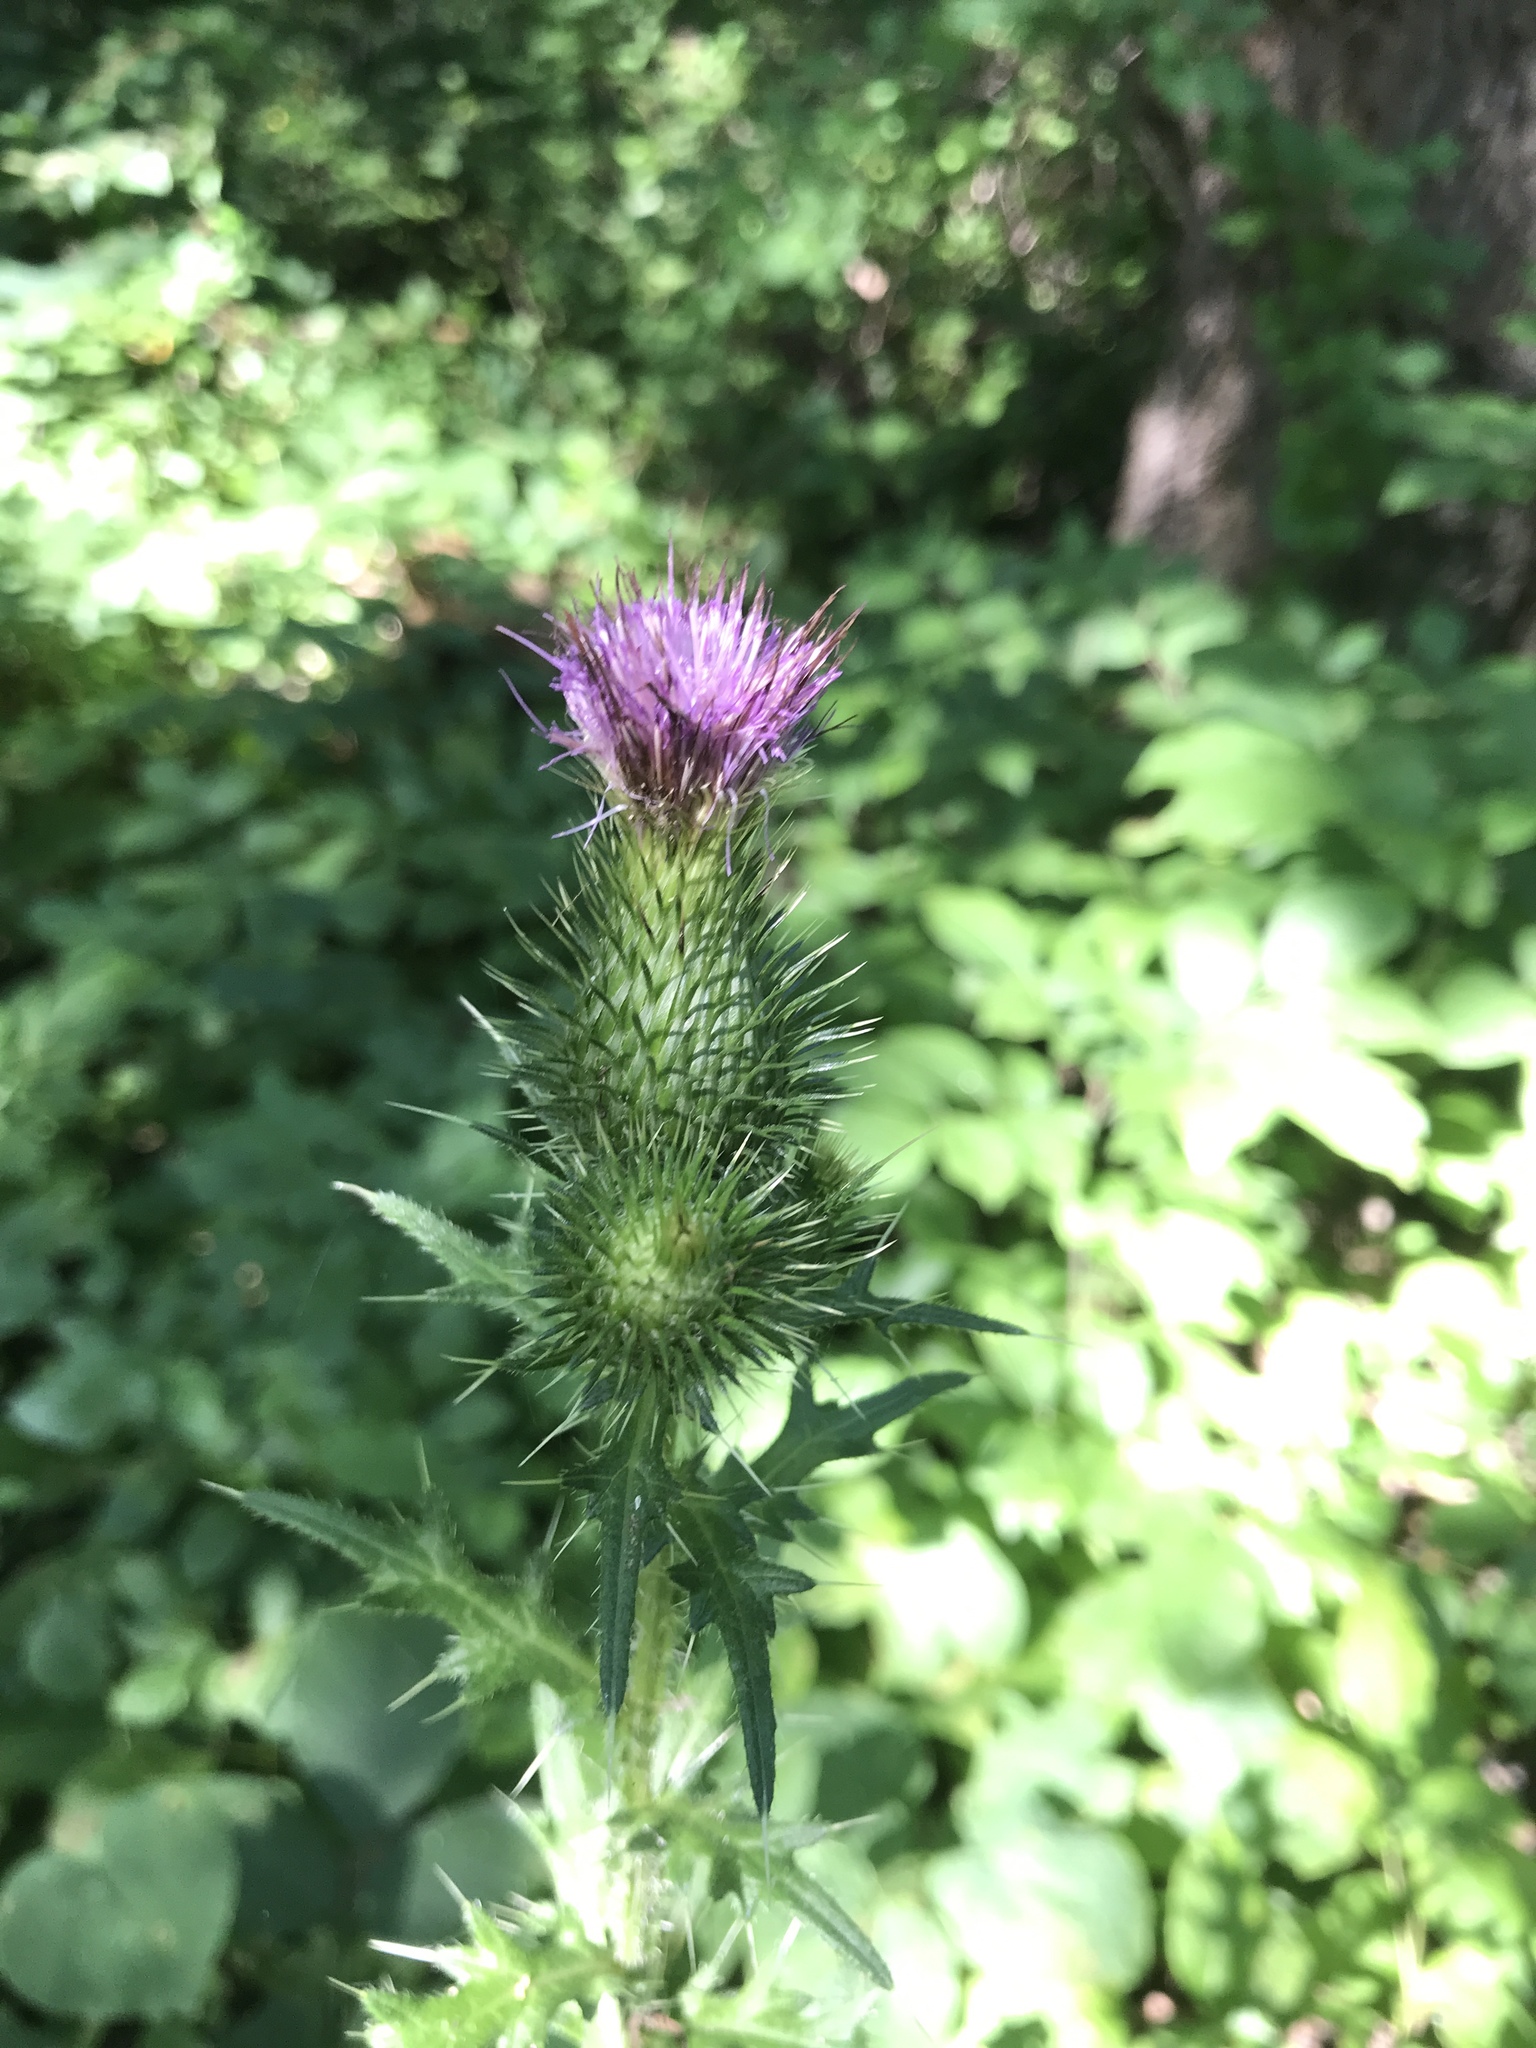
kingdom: Plantae
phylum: Tracheophyta
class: Magnoliopsida
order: Asterales
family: Asteraceae
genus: Cirsium
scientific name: Cirsium vulgare
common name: Bull thistle
